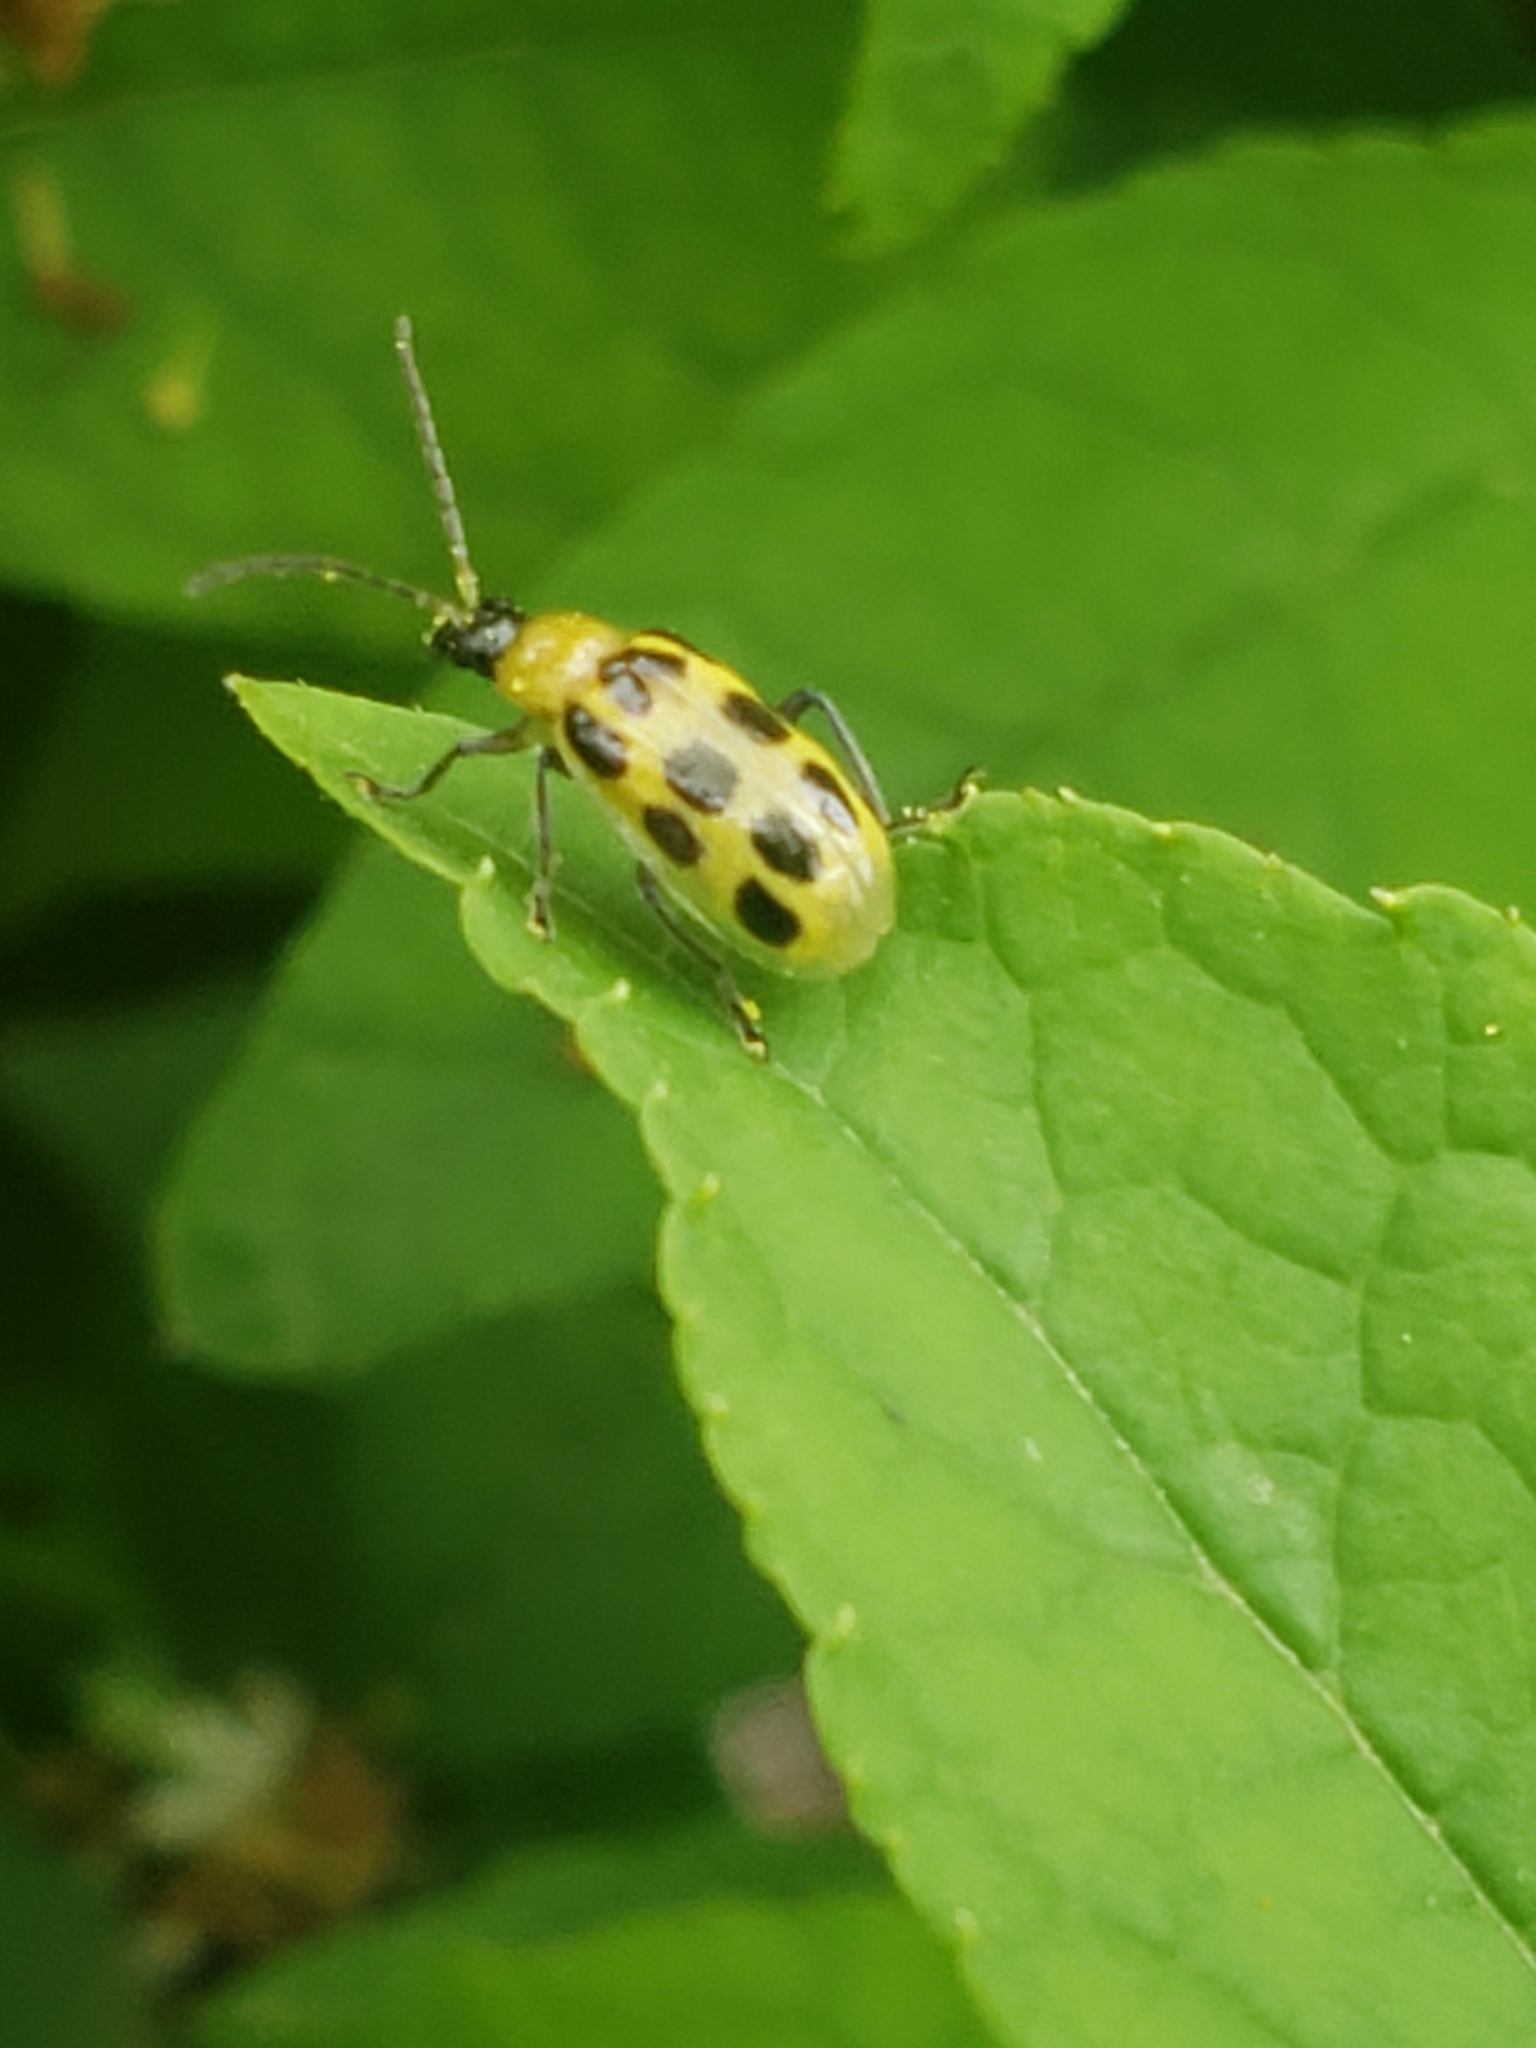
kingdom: Animalia
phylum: Arthropoda
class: Insecta
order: Coleoptera
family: Chrysomelidae
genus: Diabrotica
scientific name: Diabrotica undecimpunctata
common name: Spotted cucumber beetle
